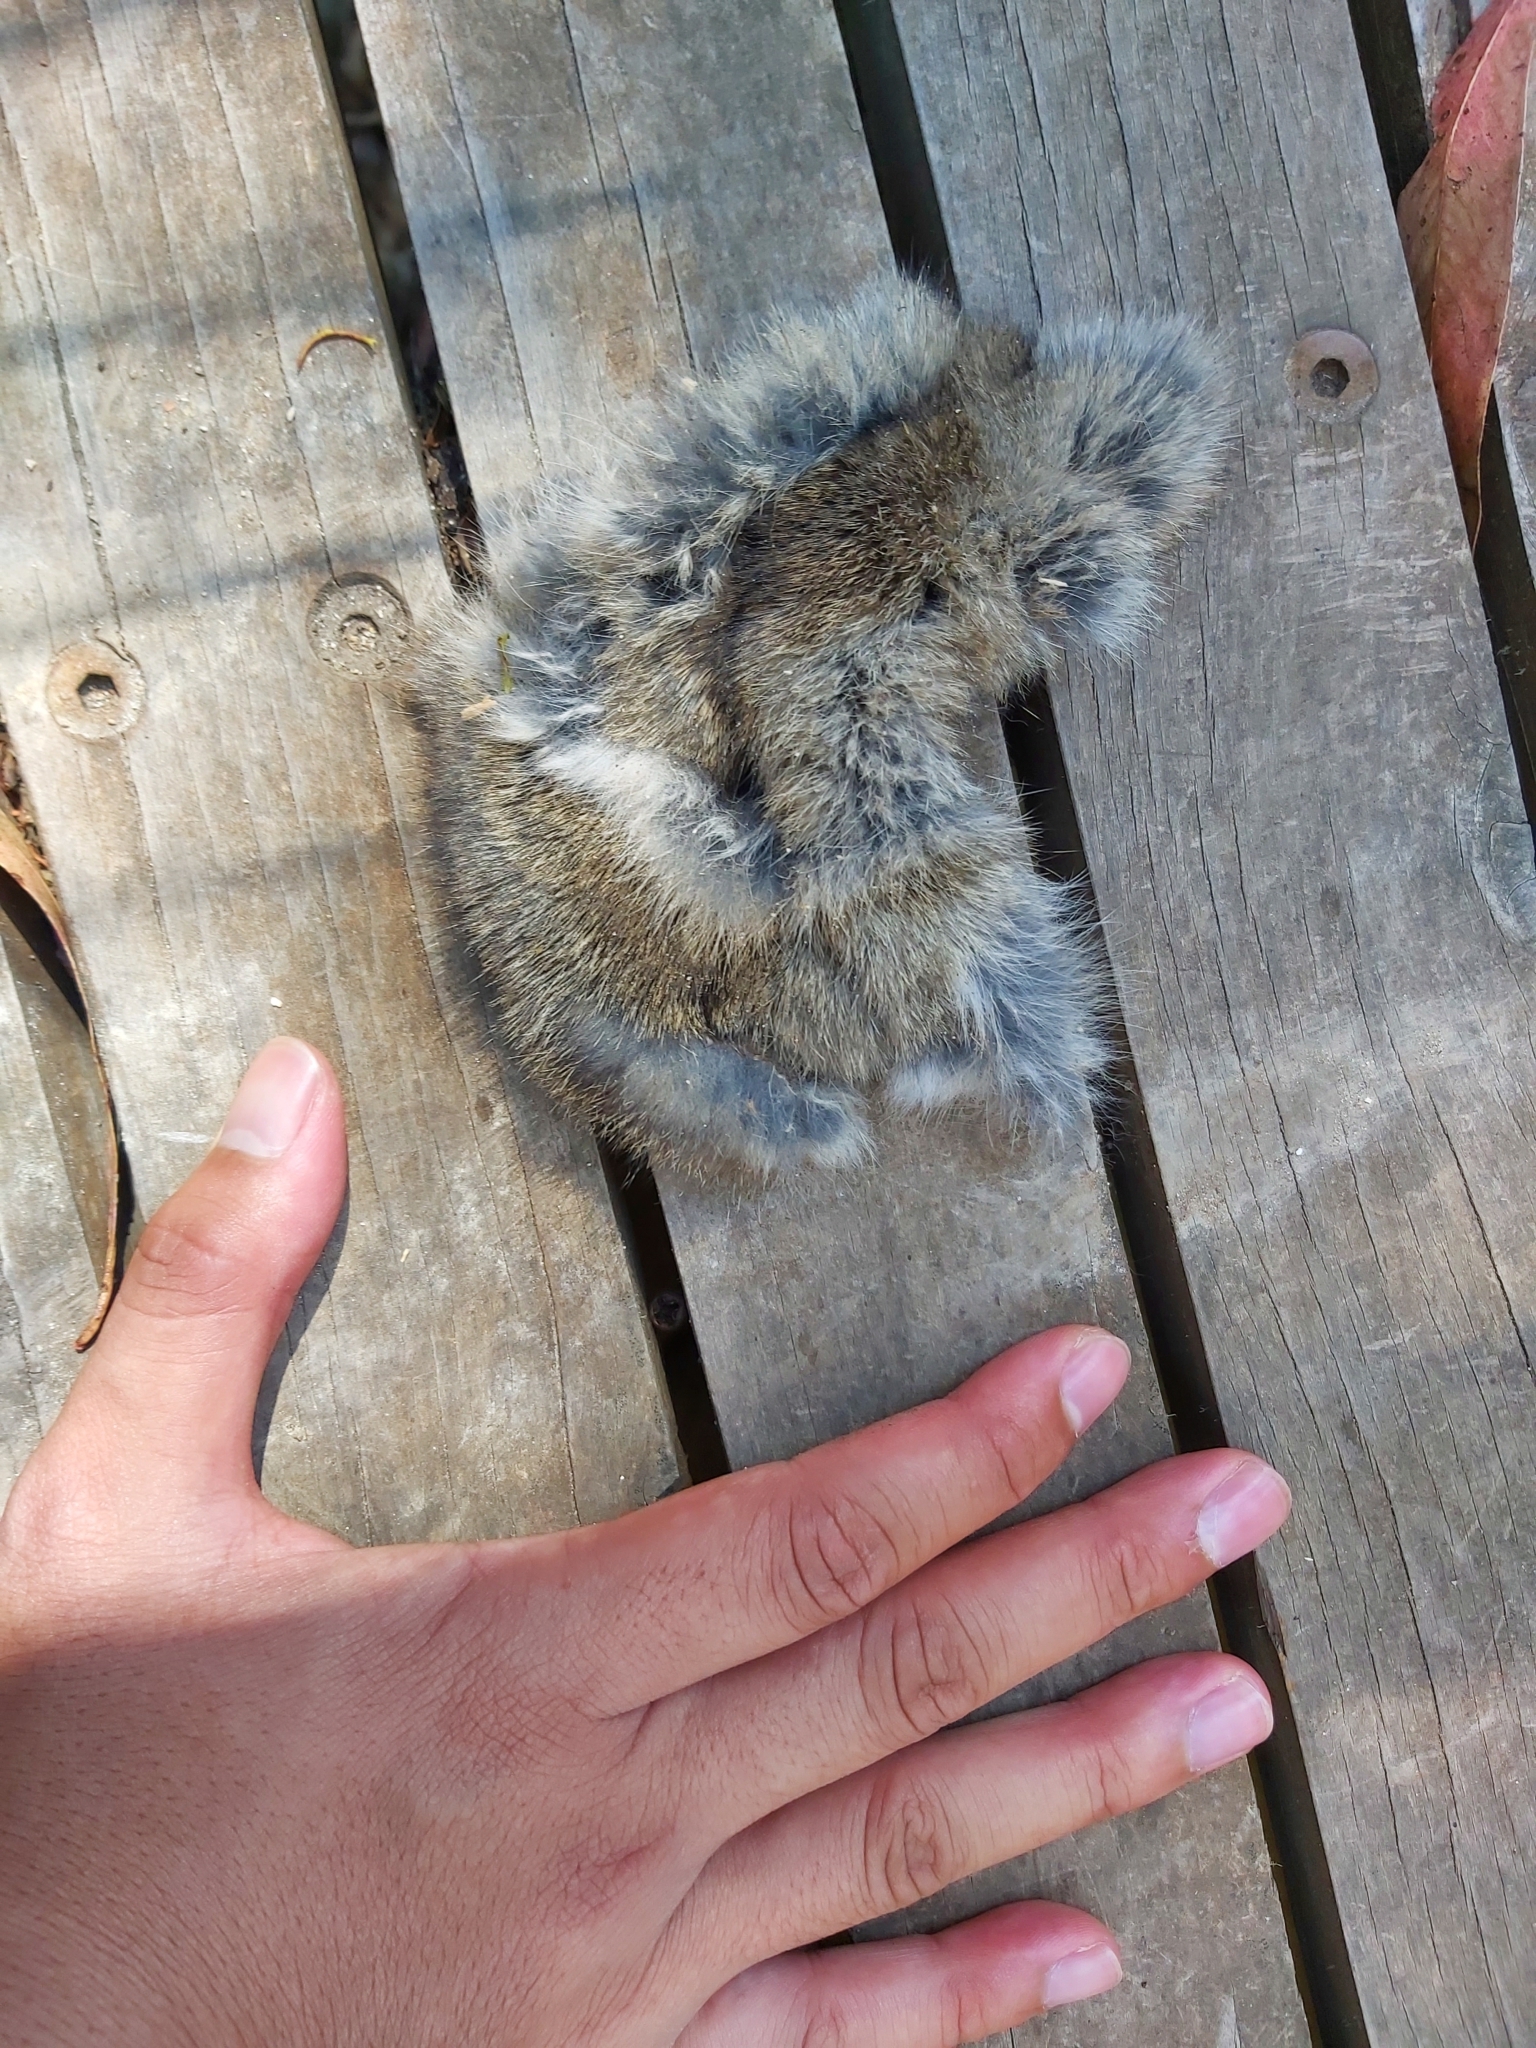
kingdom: Animalia
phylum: Chordata
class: Mammalia
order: Lagomorpha
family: Leporidae
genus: Oryctolagus
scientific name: Oryctolagus cuniculus
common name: European rabbit
